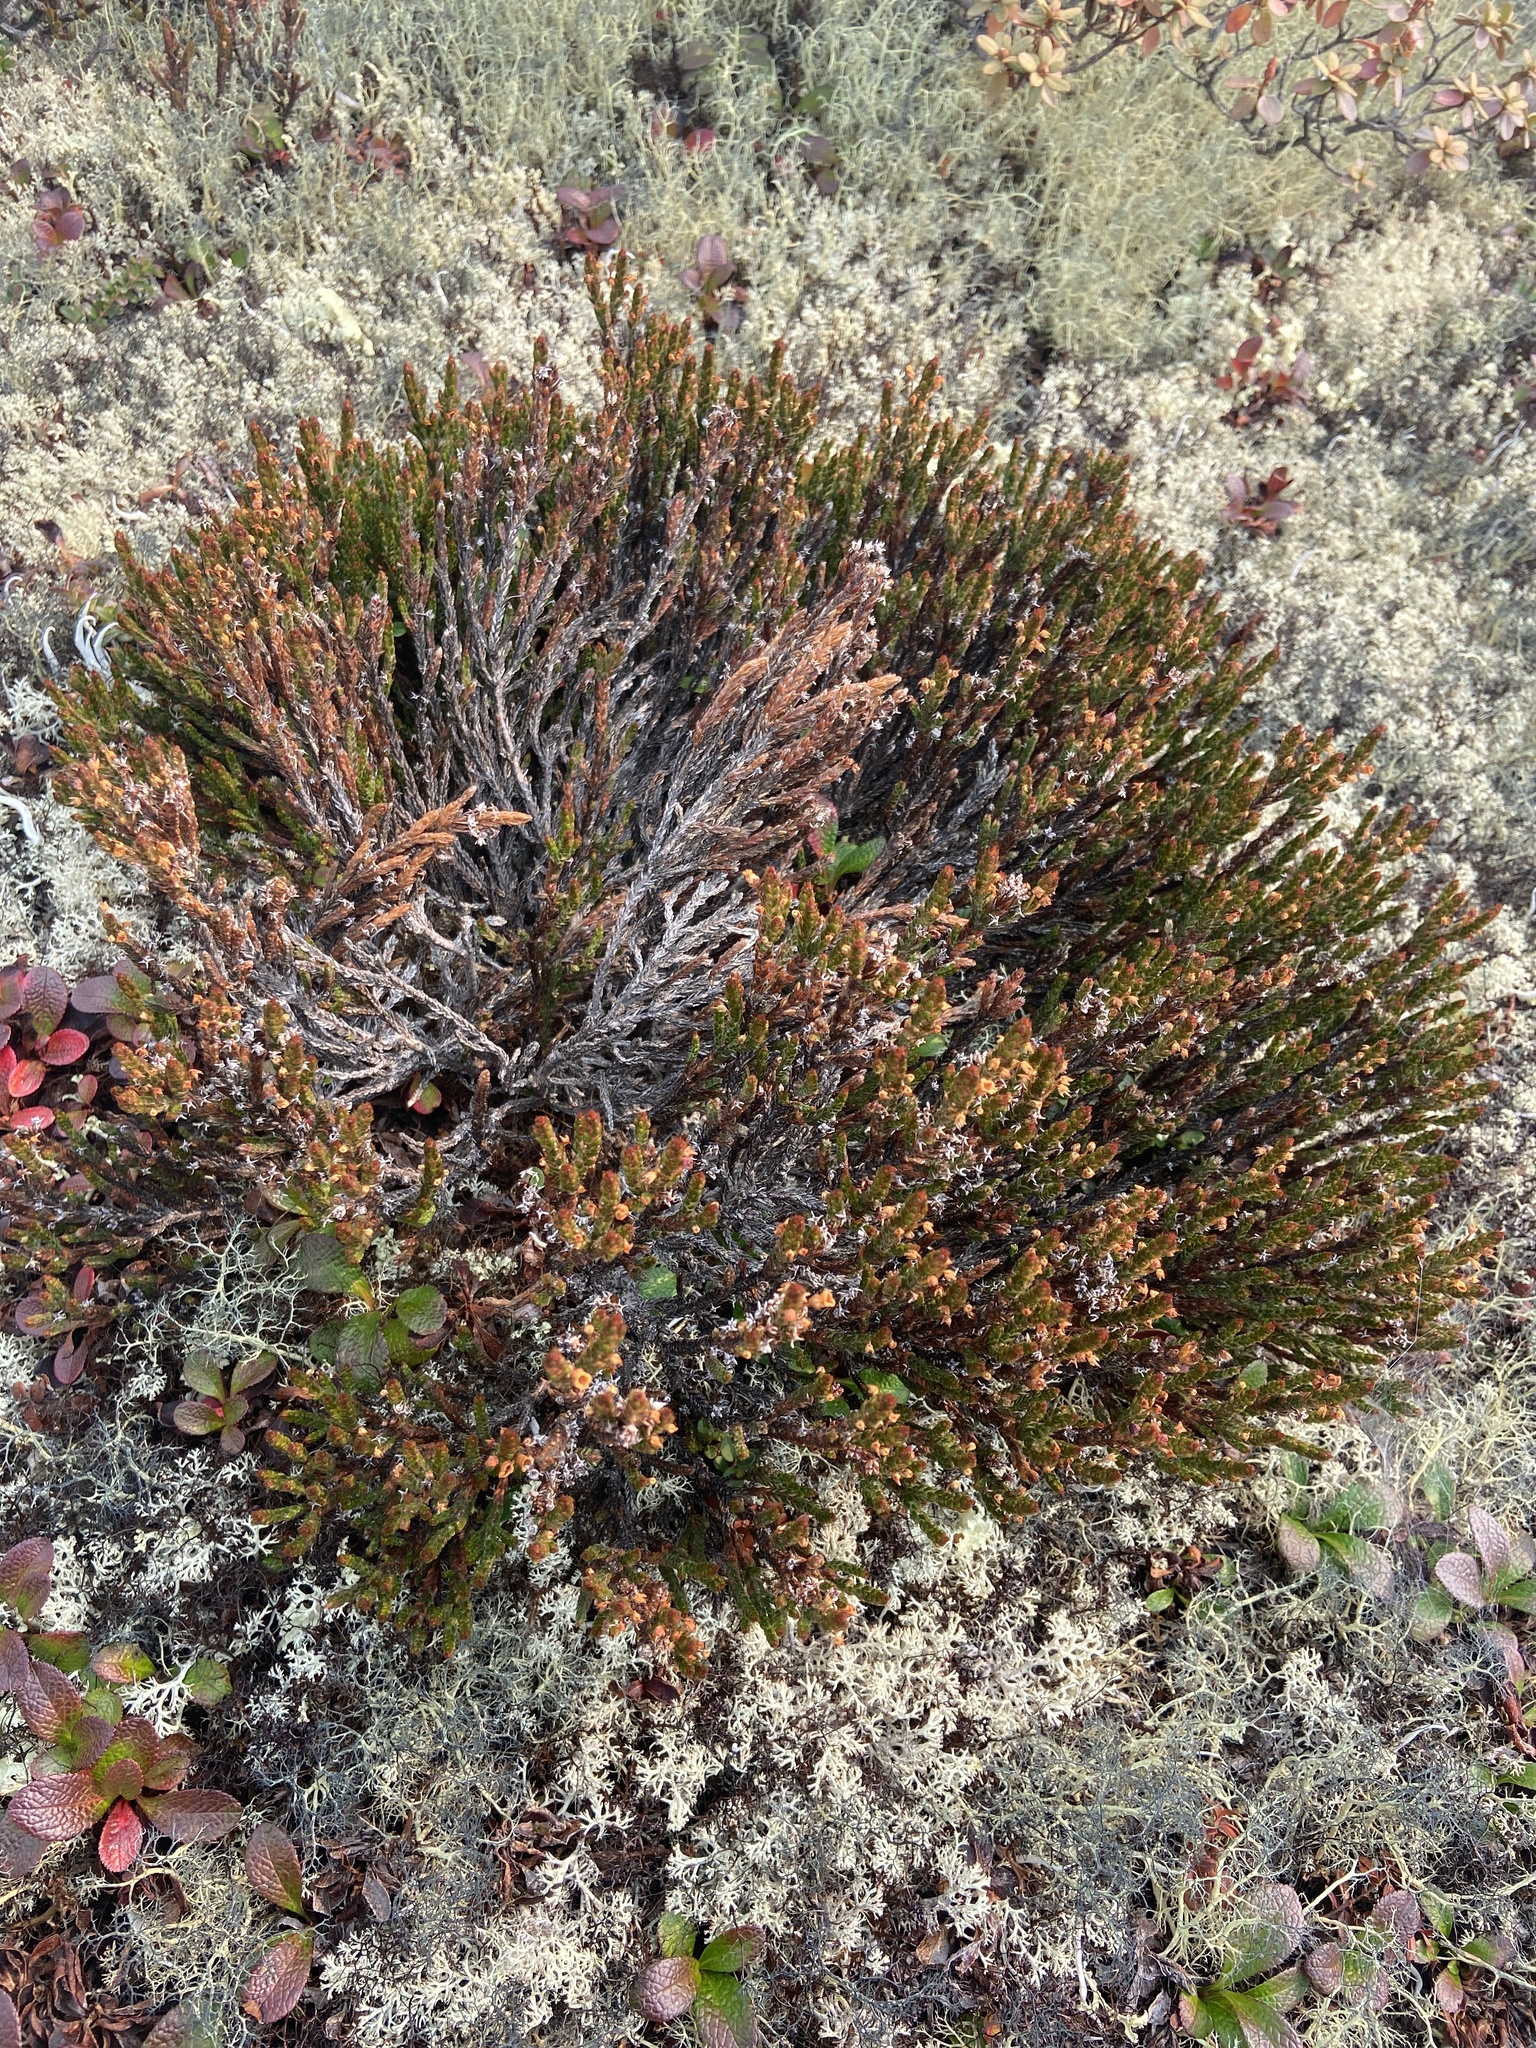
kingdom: Plantae
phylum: Tracheophyta
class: Magnoliopsida
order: Ericales
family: Ericaceae
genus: Cassiope
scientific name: Cassiope ericoides
